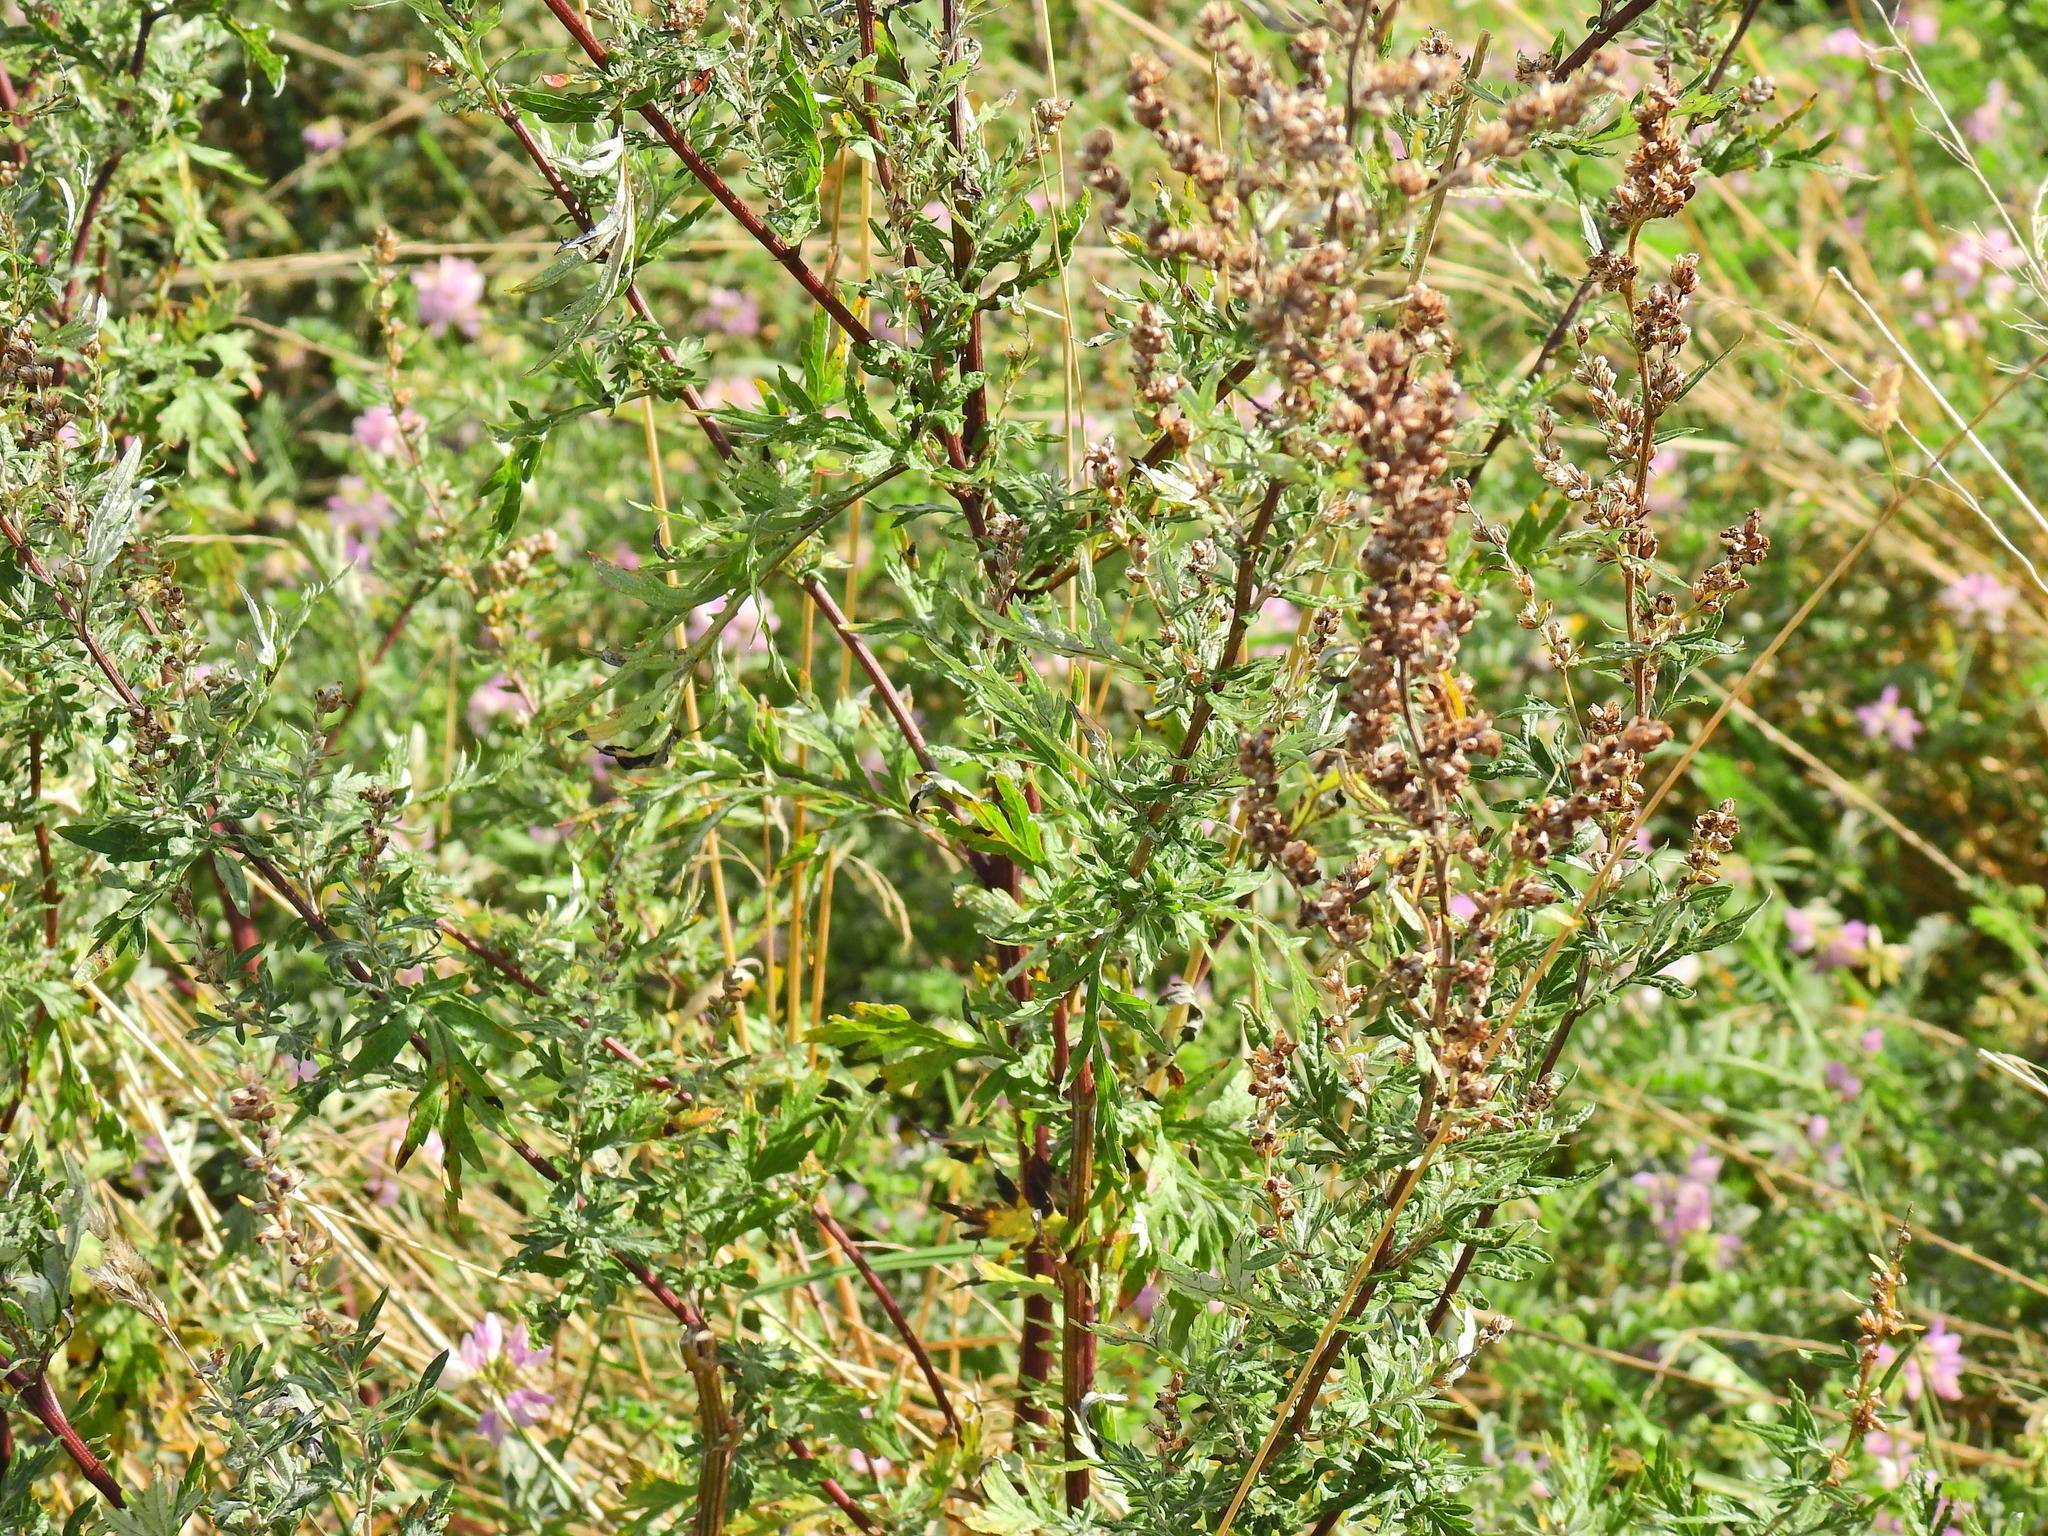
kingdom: Plantae
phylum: Tracheophyta
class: Magnoliopsida
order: Asterales
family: Asteraceae
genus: Artemisia
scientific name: Artemisia vulgaris
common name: Mugwort
